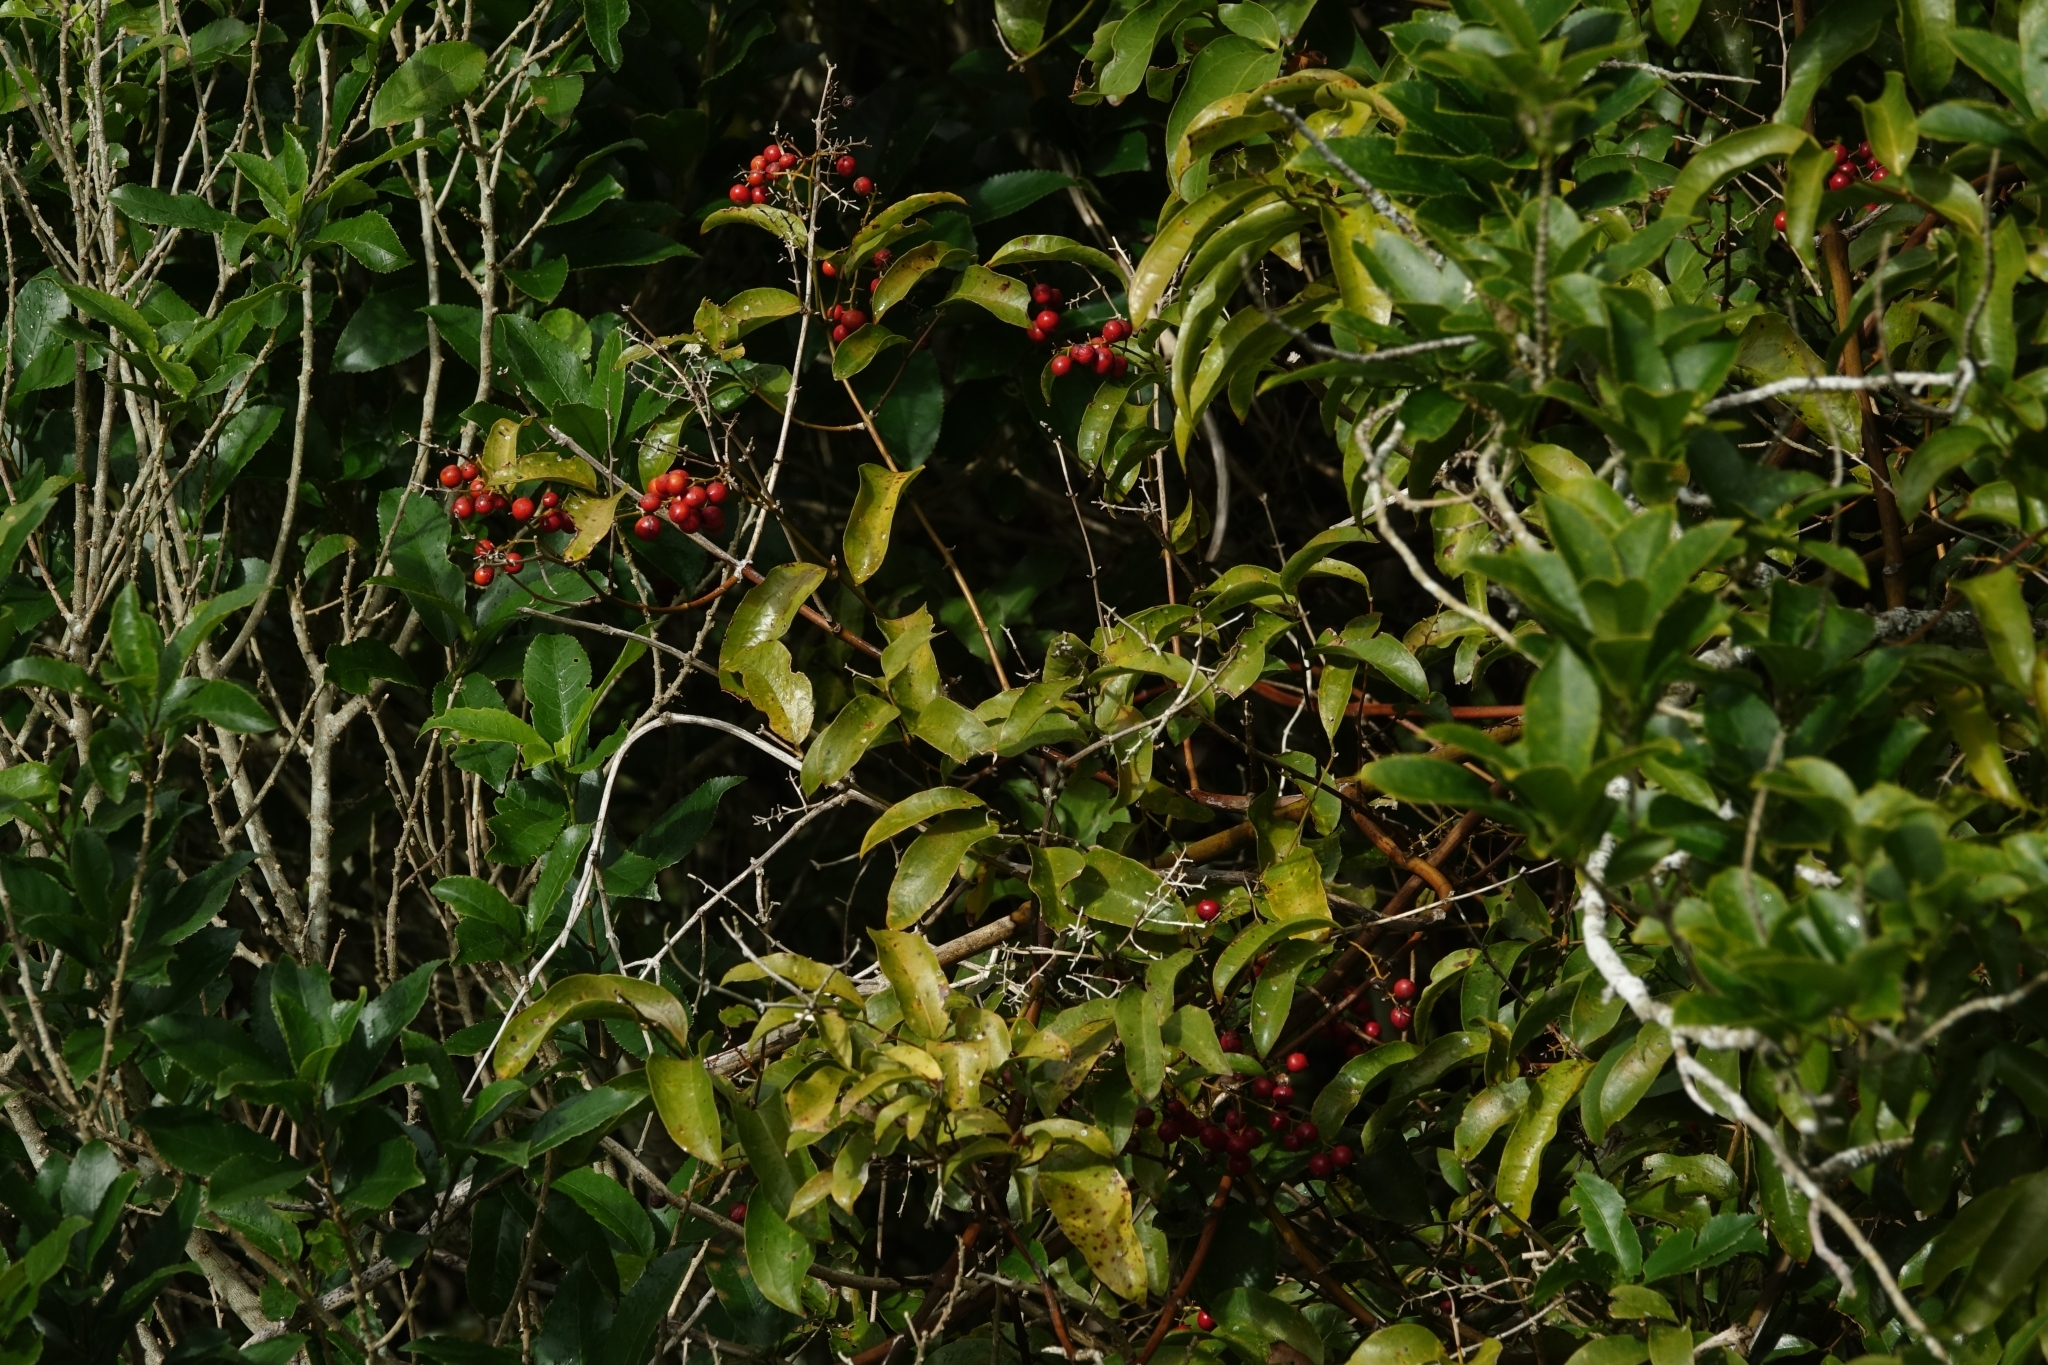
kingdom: Plantae
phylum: Tracheophyta
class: Liliopsida
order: Liliales
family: Ripogonaceae
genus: Ripogonum
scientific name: Ripogonum scandens
